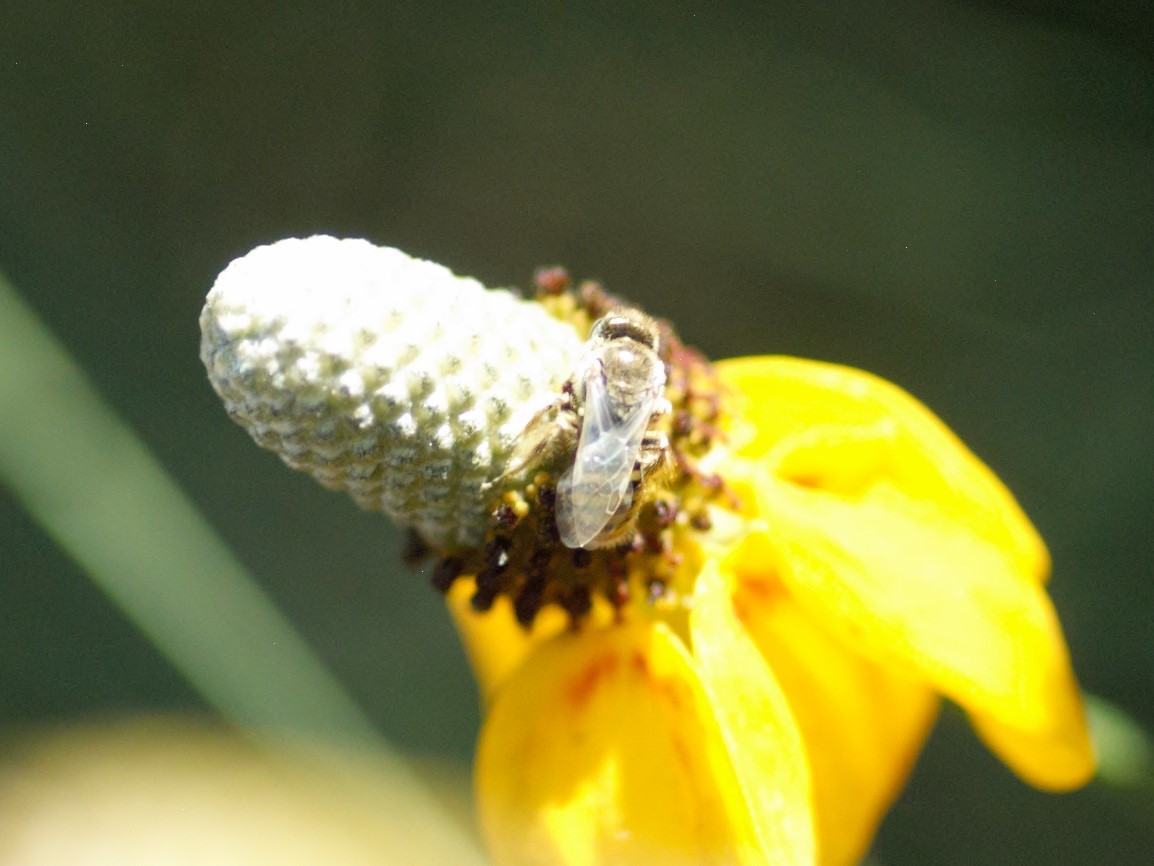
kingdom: Animalia
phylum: Arthropoda
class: Insecta
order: Hymenoptera
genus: Cockerellia
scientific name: Cockerellia
